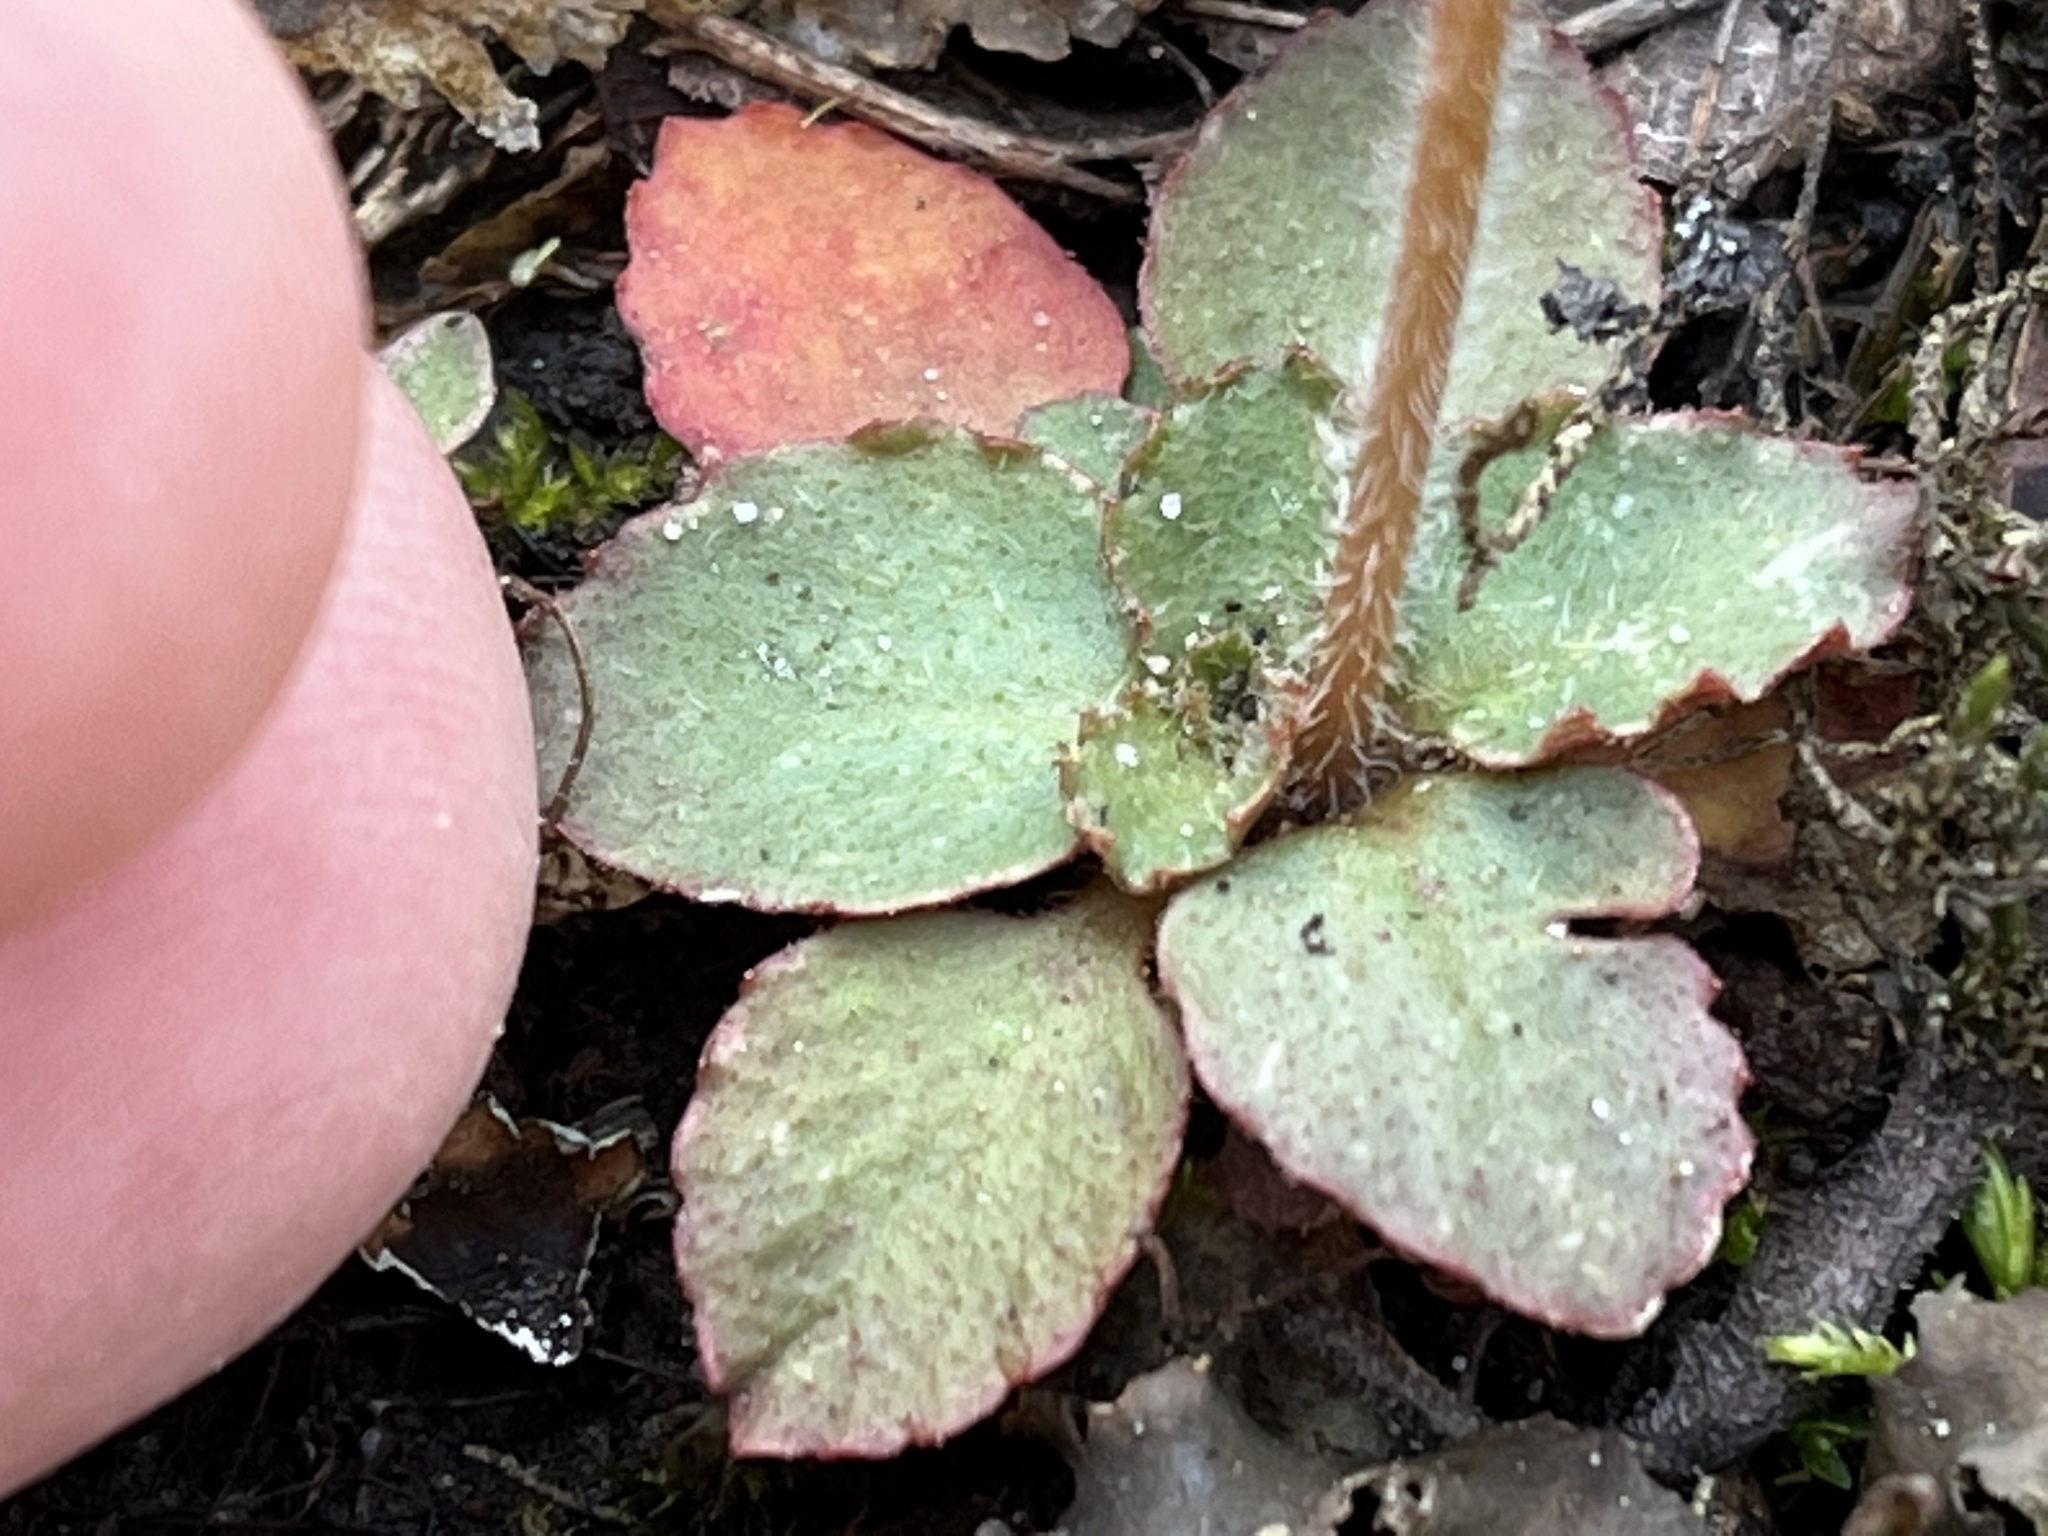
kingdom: Plantae
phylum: Tracheophyta
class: Magnoliopsida
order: Saxifragales
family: Saxifragaceae
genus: Micranthes
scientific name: Micranthes virginiensis
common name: Early saxifrage
